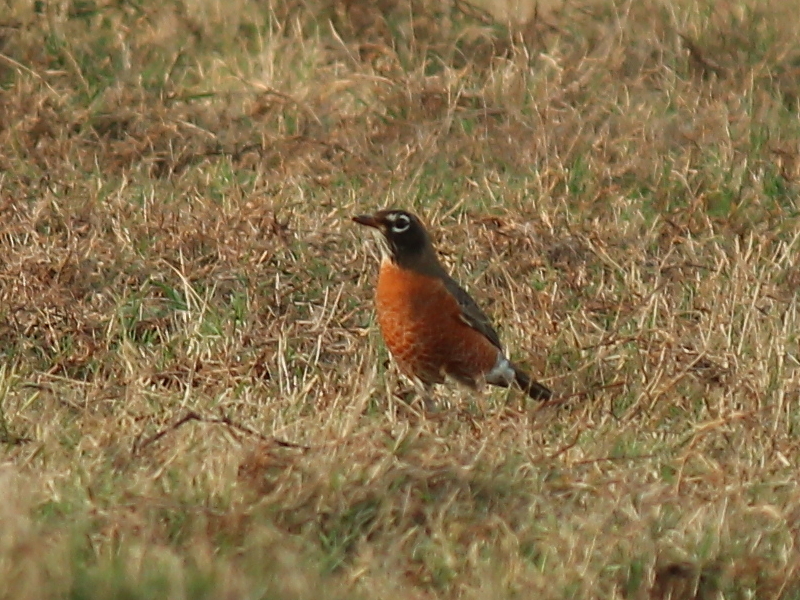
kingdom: Animalia
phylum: Chordata
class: Aves
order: Passeriformes
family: Turdidae
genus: Turdus
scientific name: Turdus migratorius
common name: American robin
